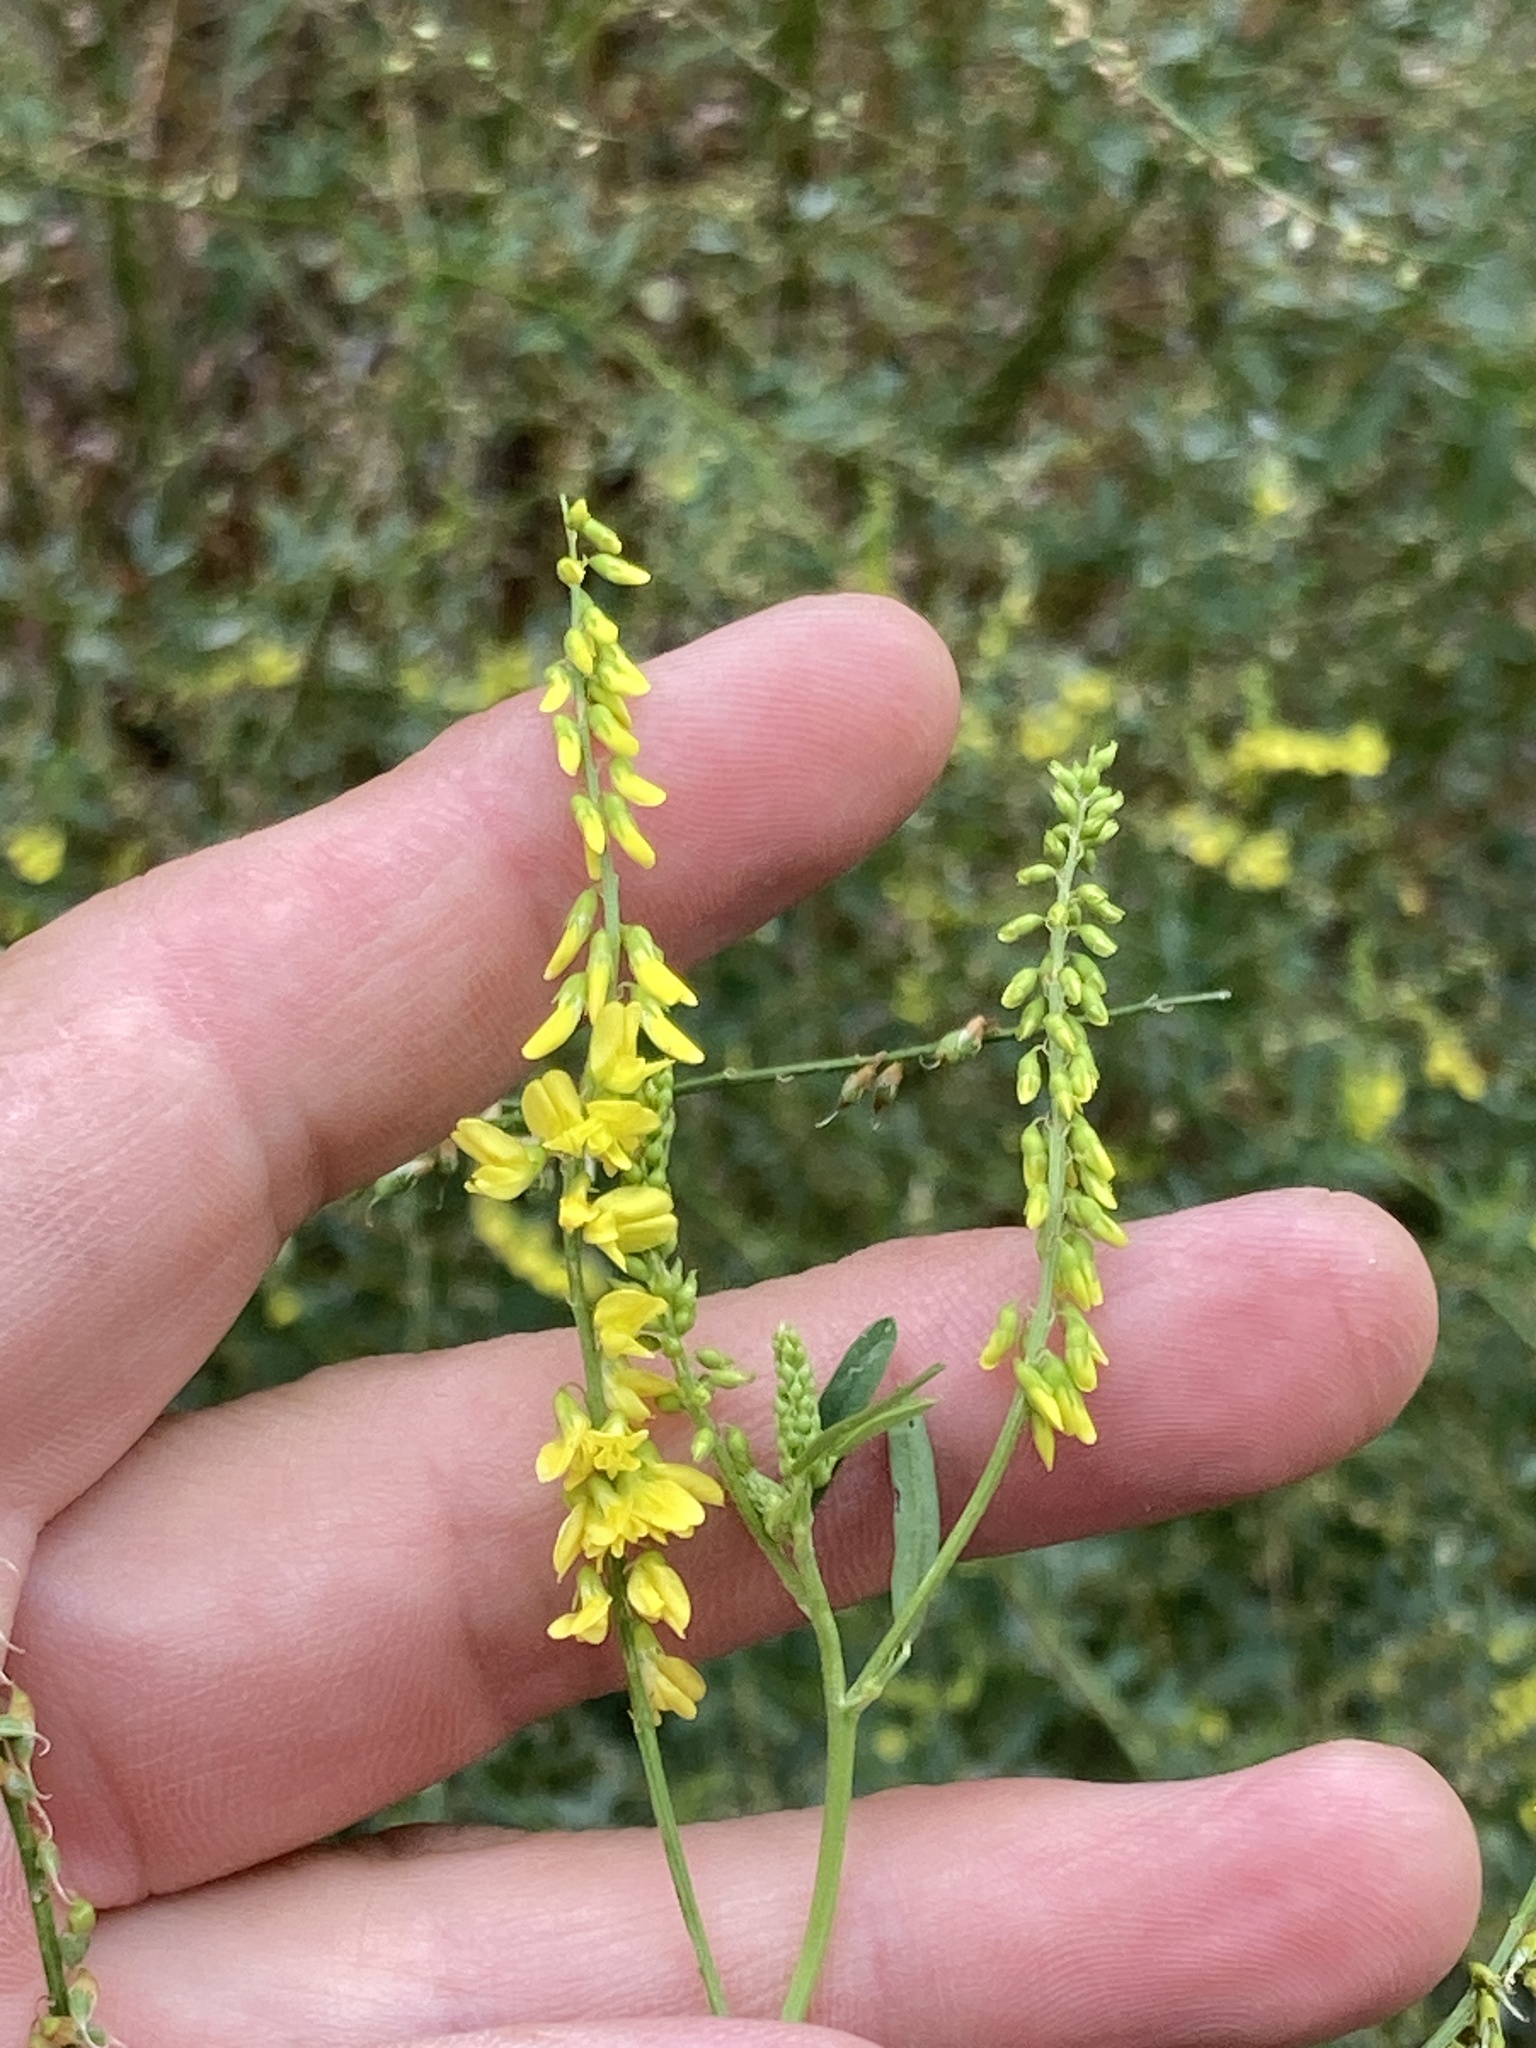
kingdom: Plantae
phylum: Tracheophyta
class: Magnoliopsida
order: Fabales
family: Fabaceae
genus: Melilotus
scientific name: Melilotus officinalis
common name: Sweetclover
